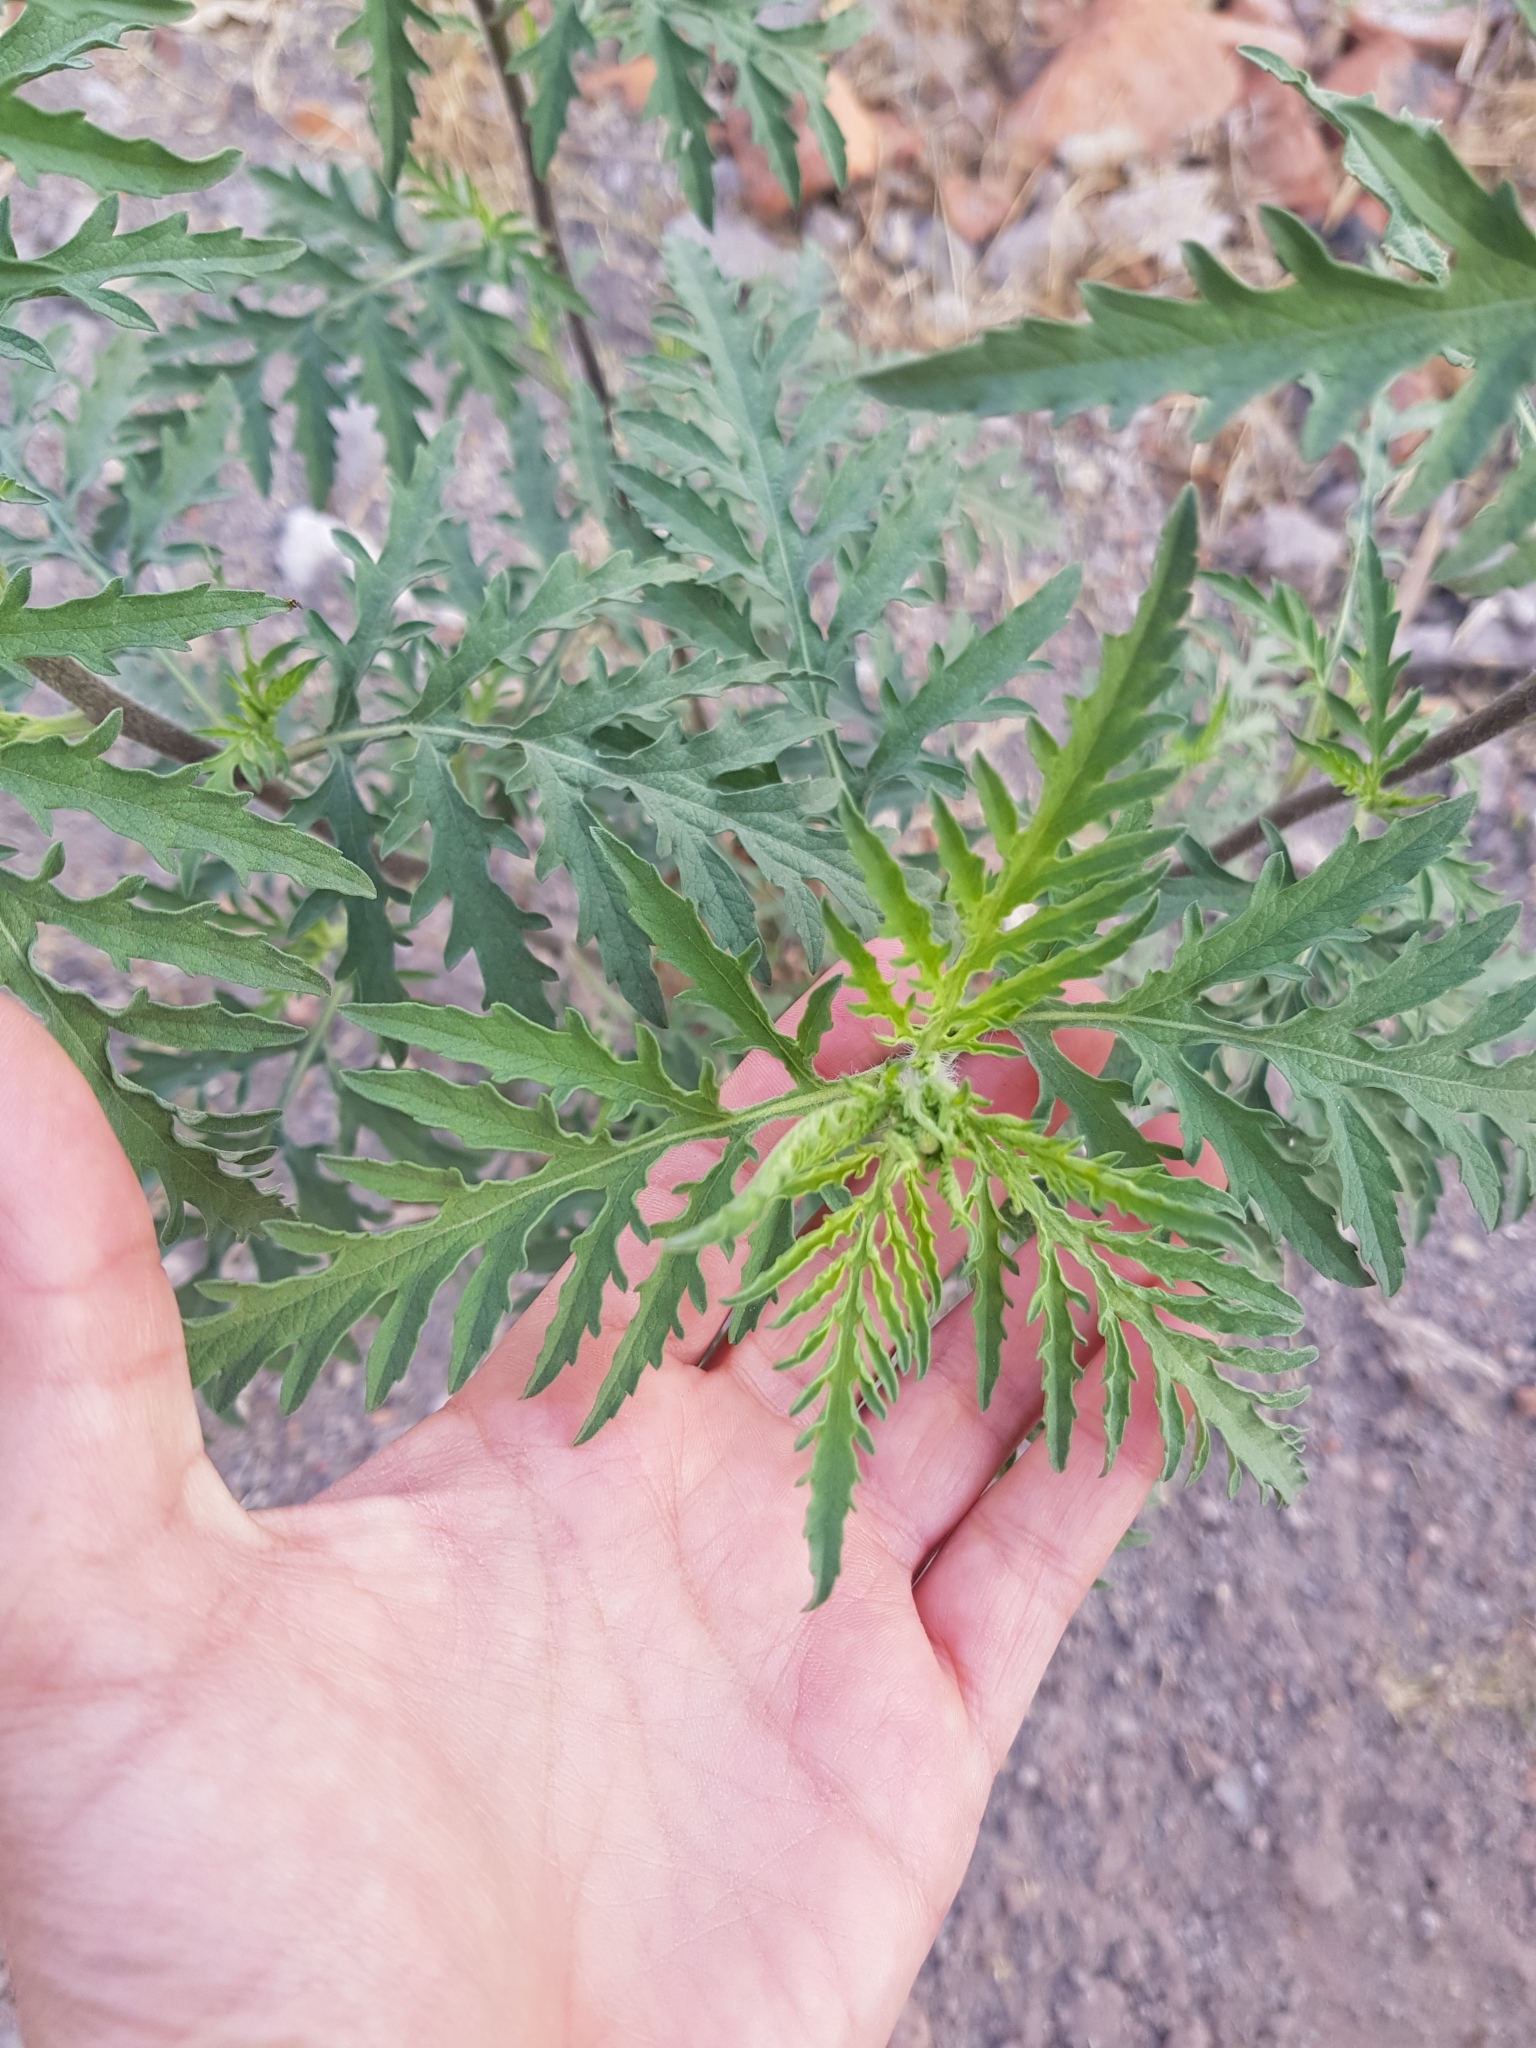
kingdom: Plantae
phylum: Tracheophyta
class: Magnoliopsida
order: Asterales
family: Asteraceae
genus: Ambrosia
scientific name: Ambrosia confertiflora
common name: Bur ragweed
